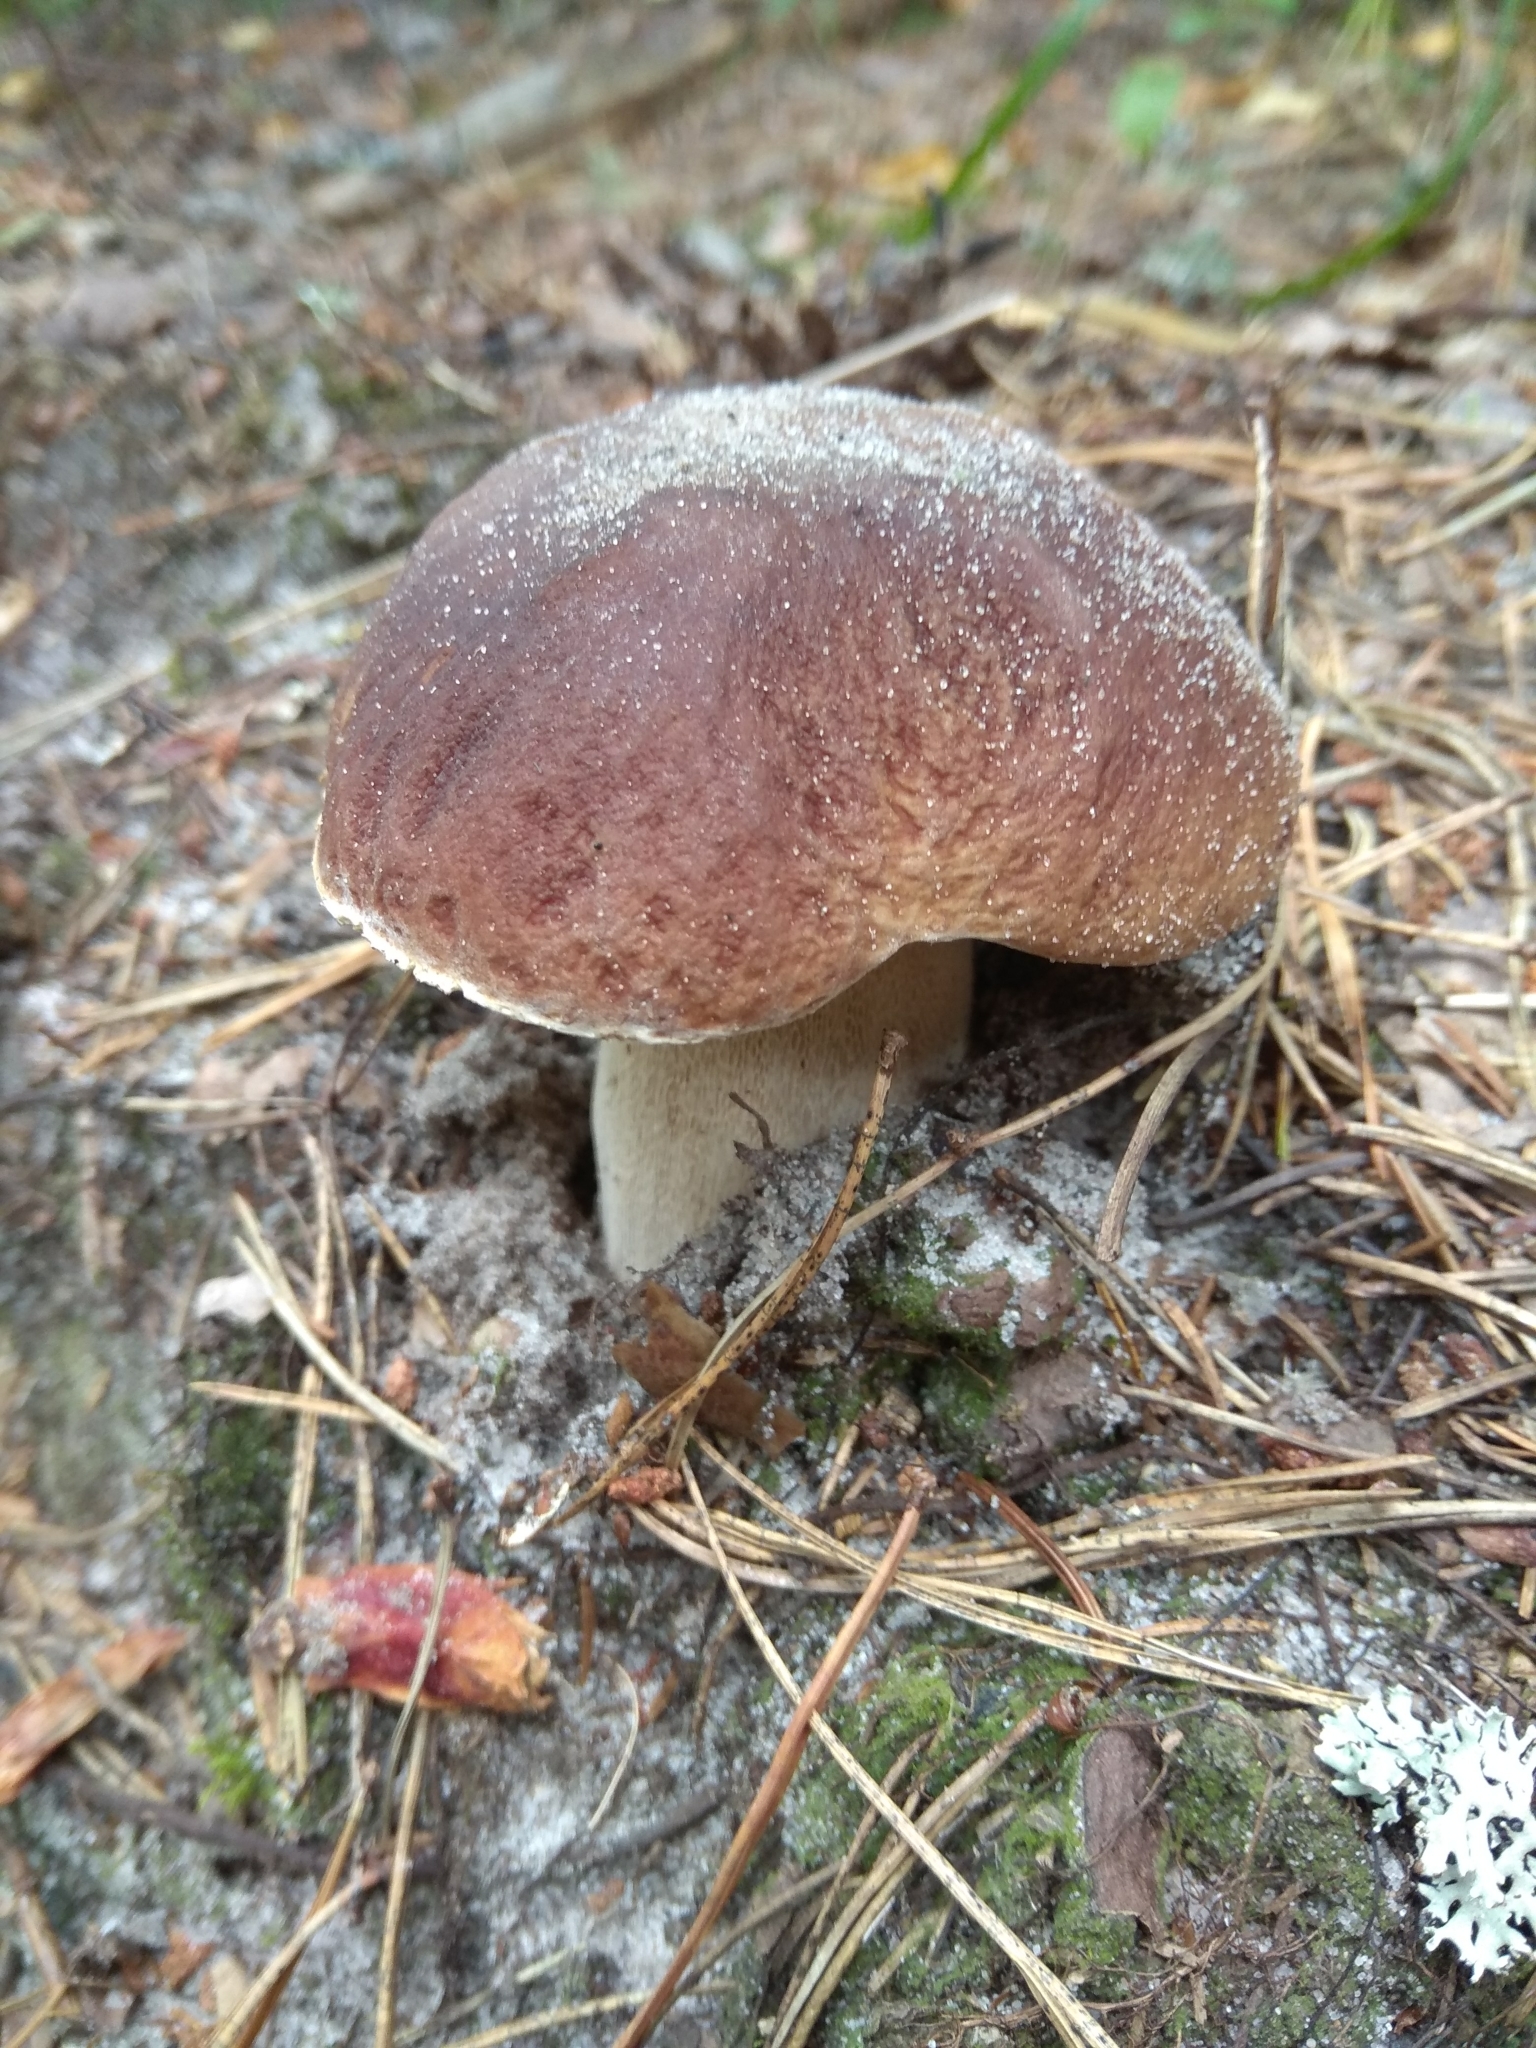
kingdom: Fungi
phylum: Basidiomycota
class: Agaricomycetes
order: Boletales
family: Boletaceae
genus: Boletus
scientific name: Boletus edulis
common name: Cep
